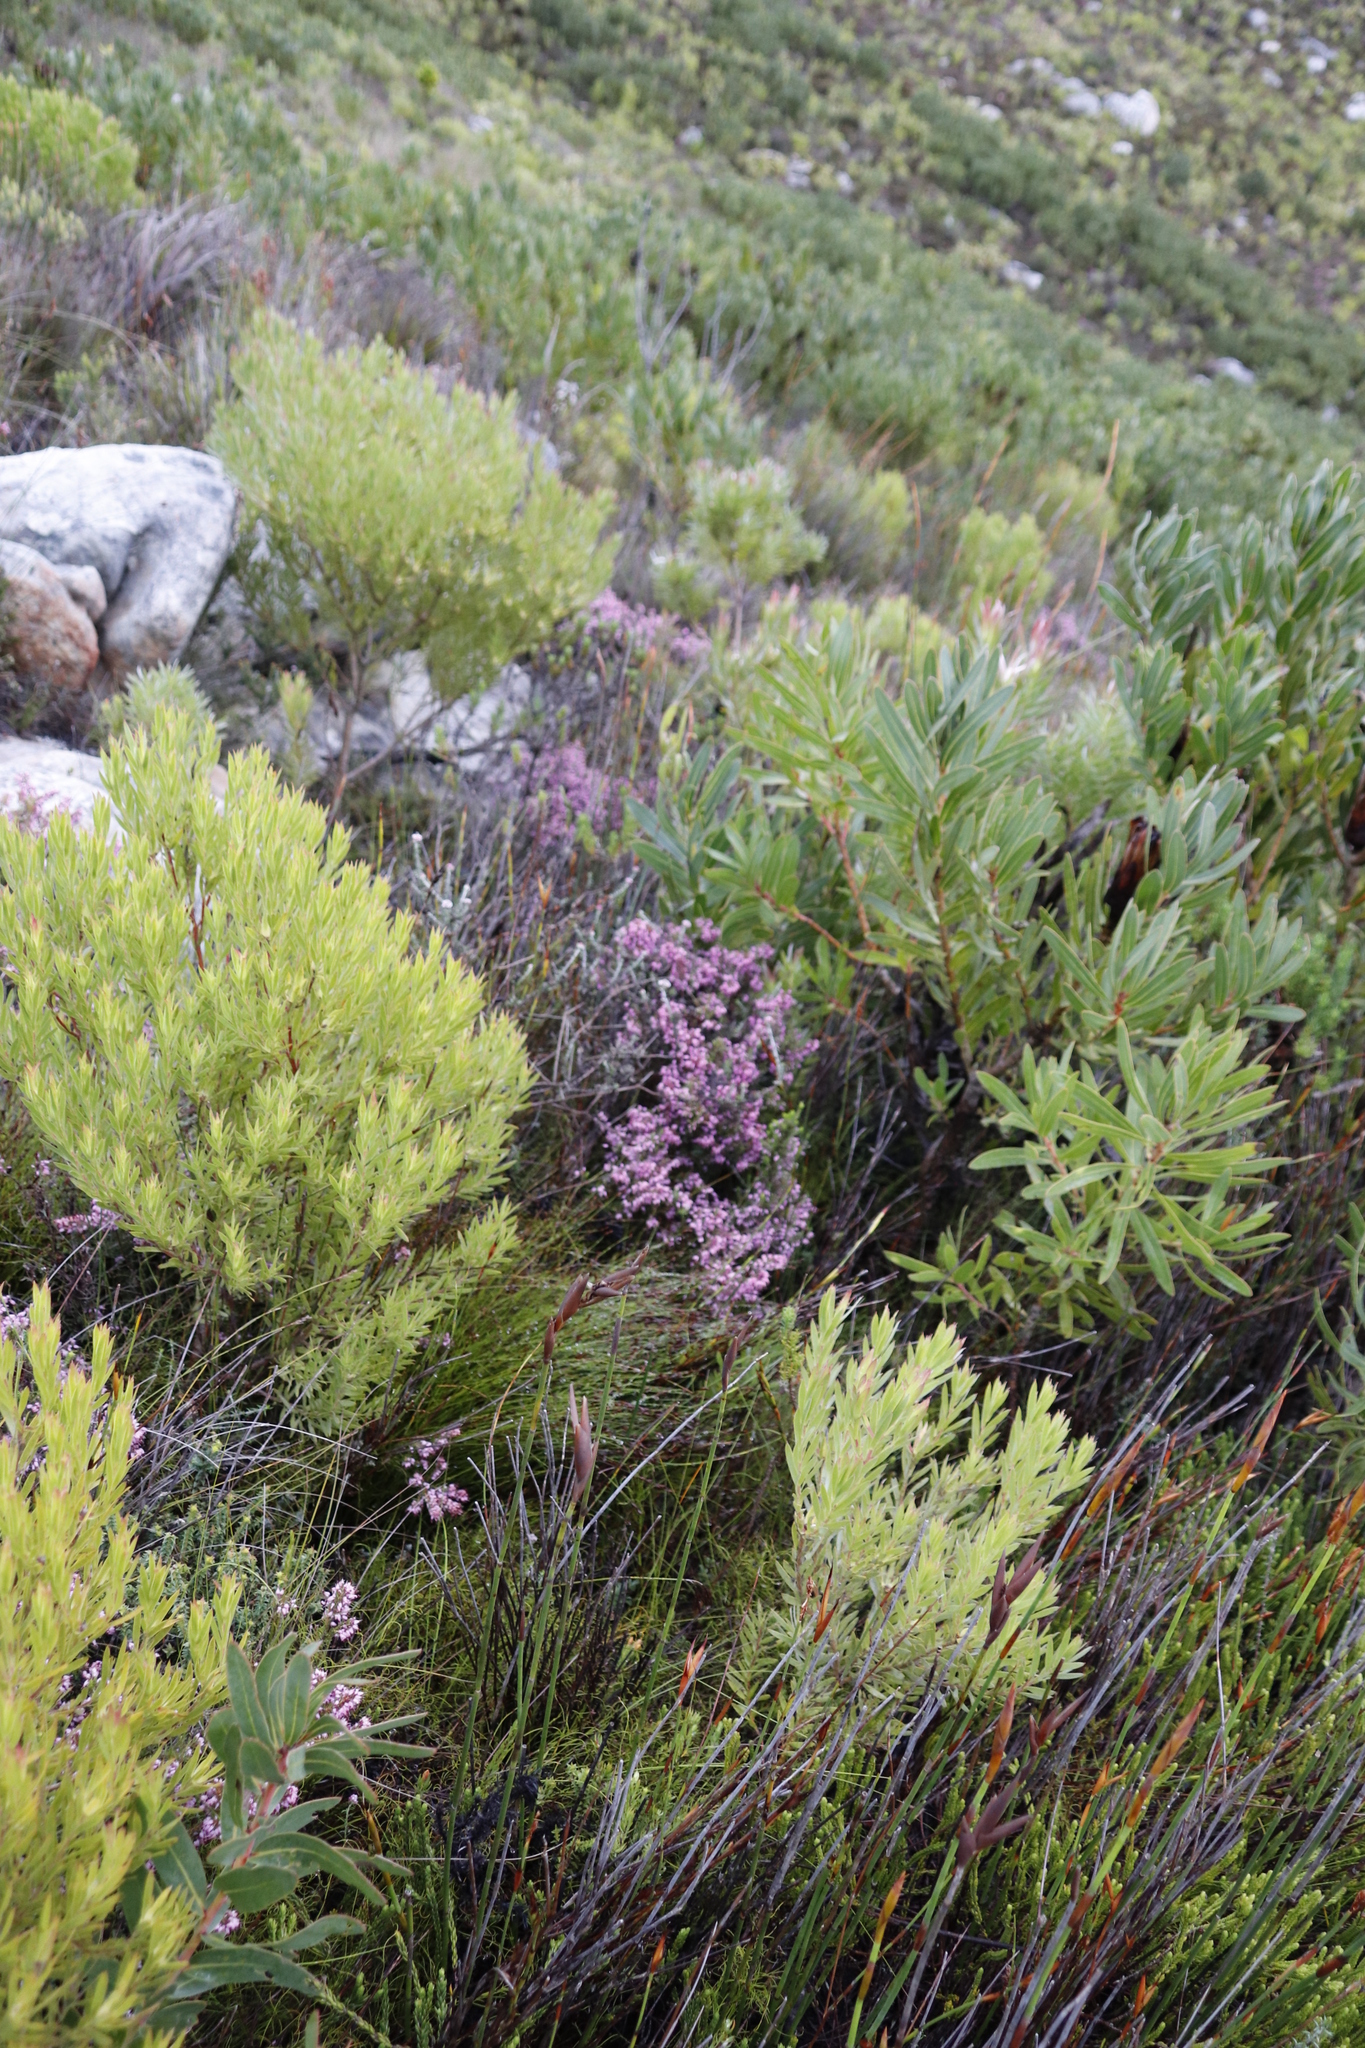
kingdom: Plantae
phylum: Tracheophyta
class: Magnoliopsida
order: Proteales
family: Proteaceae
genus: Leucadendron
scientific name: Leucadendron xanthoconus
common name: Sickle-leaf conebush
